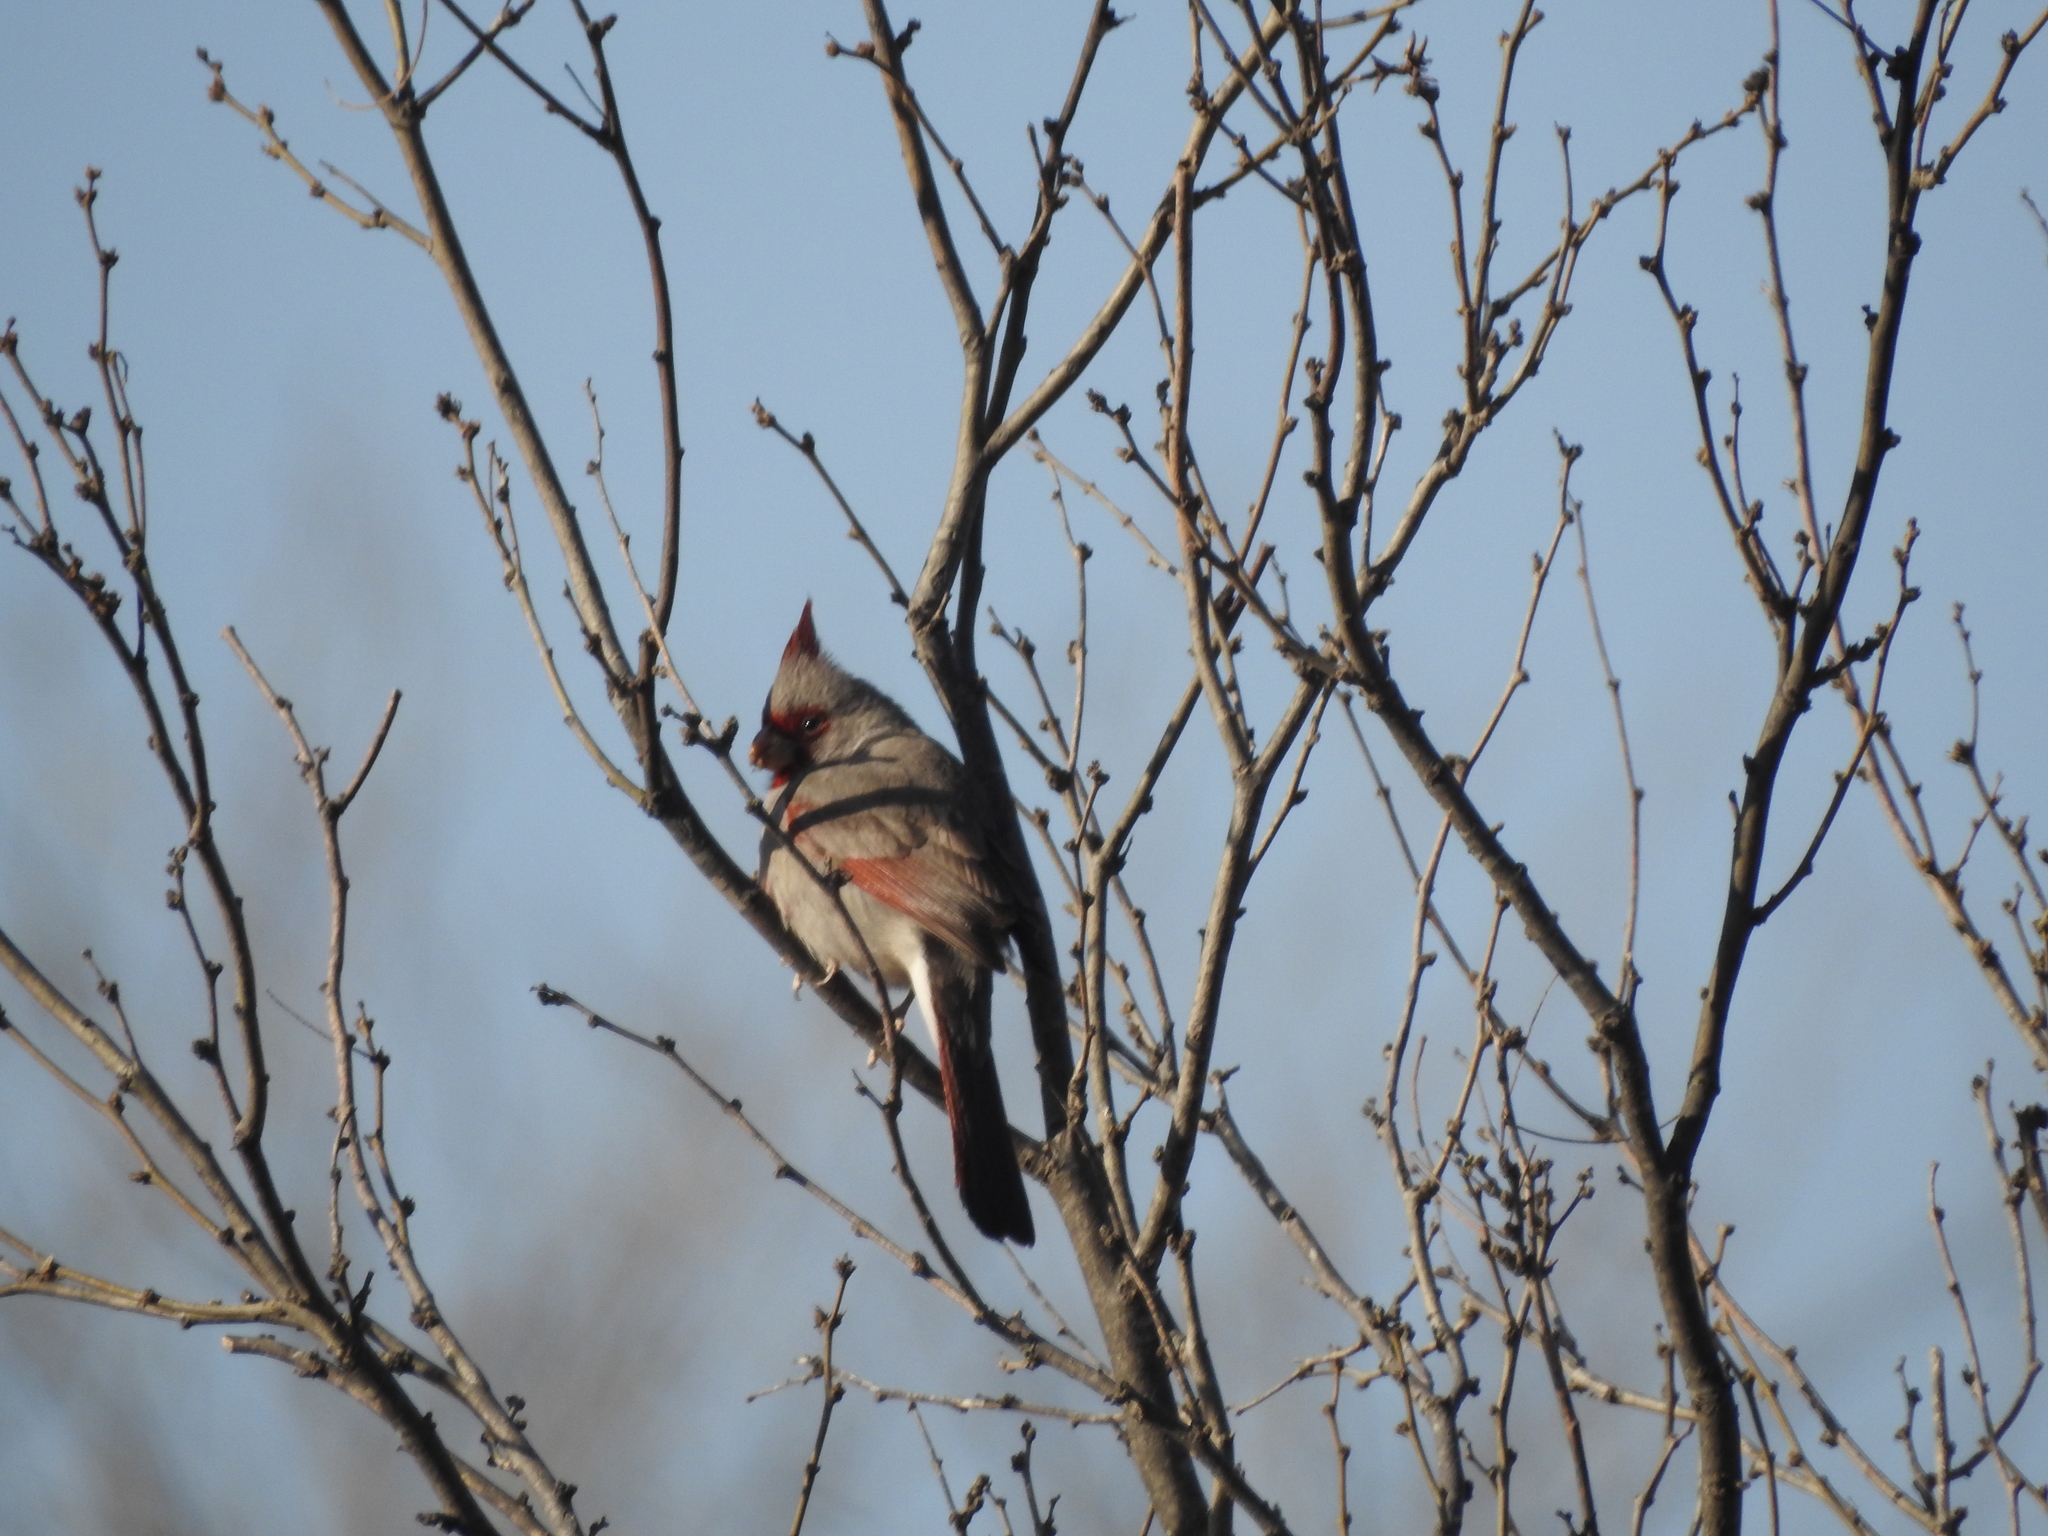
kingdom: Animalia
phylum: Chordata
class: Aves
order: Passeriformes
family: Cardinalidae
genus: Cardinalis
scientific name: Cardinalis sinuatus
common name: Pyrrhuloxia
